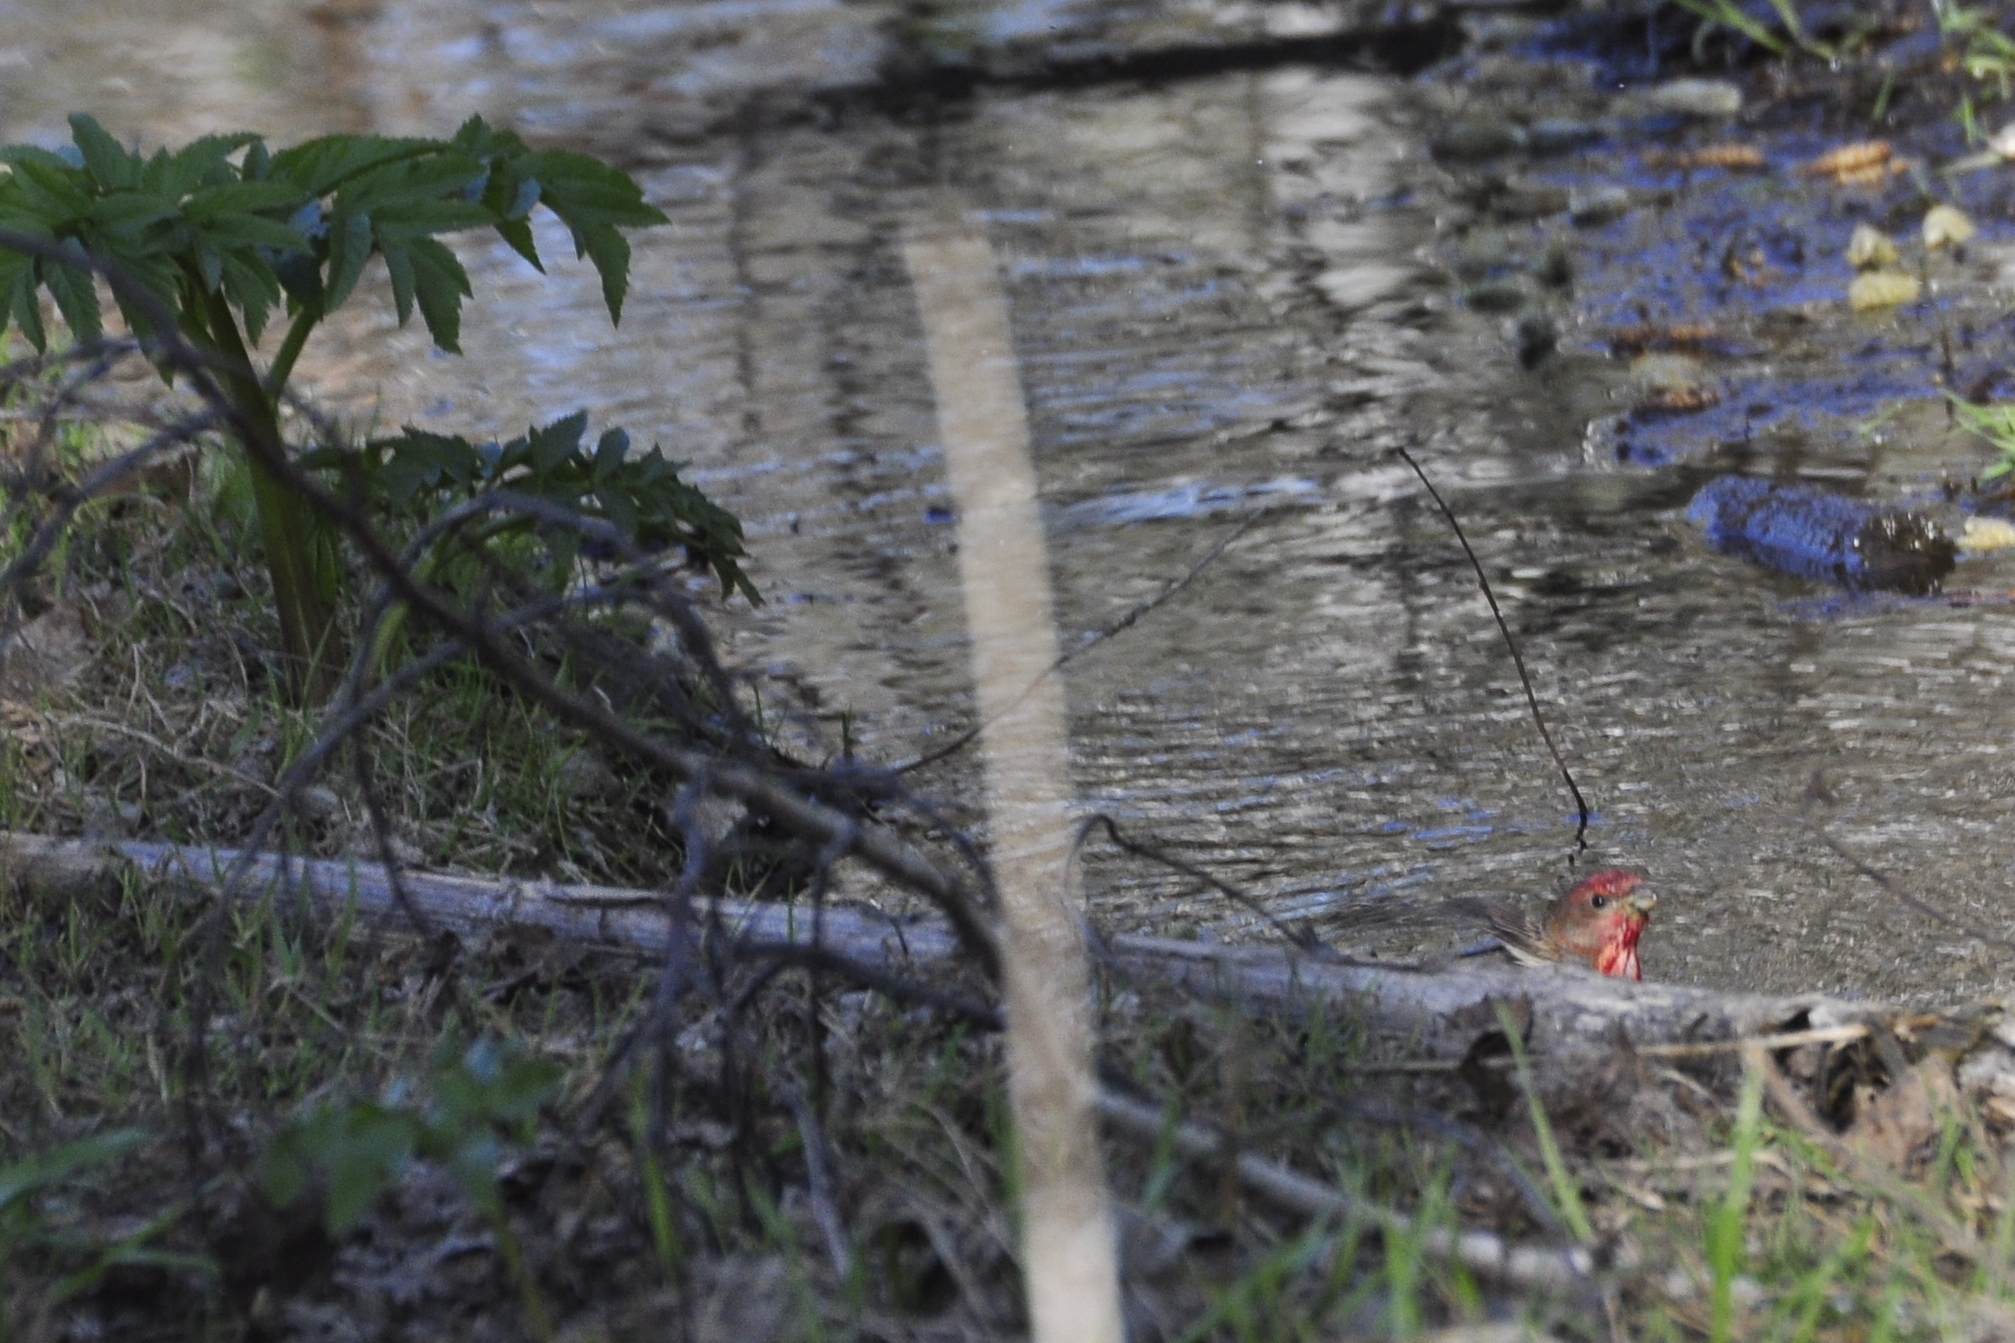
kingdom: Animalia
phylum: Chordata
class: Aves
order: Passeriformes
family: Fringillidae
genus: Carpodacus
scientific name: Carpodacus erythrinus
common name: Common rosefinch
